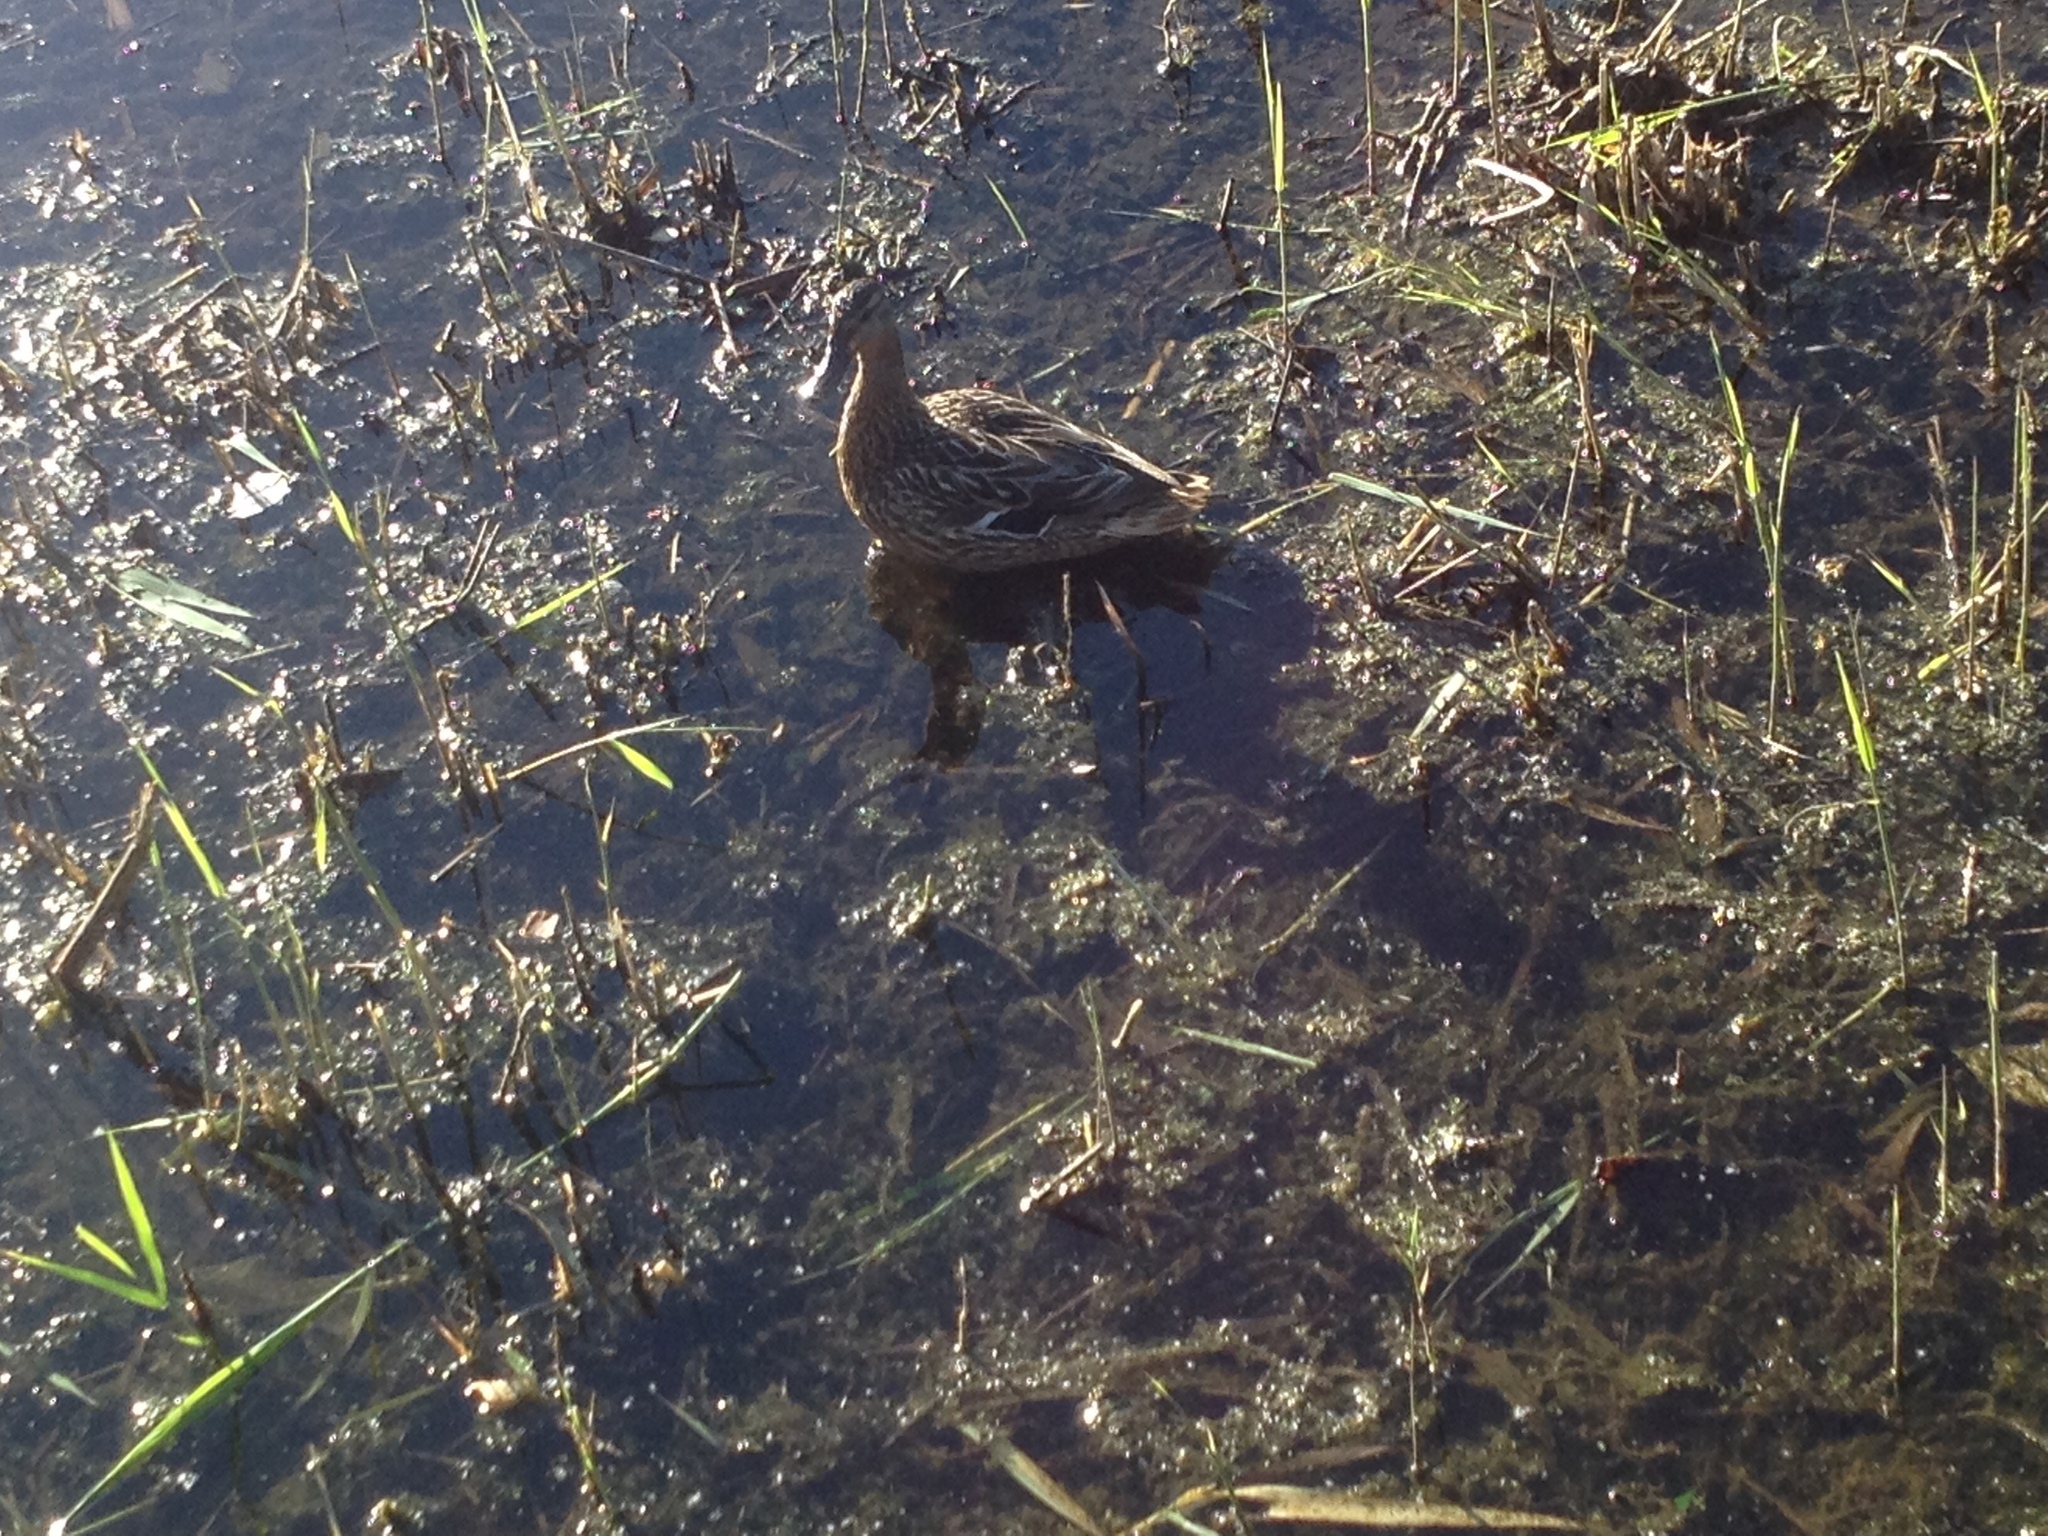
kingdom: Animalia
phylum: Chordata
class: Aves
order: Anseriformes
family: Anatidae
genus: Anas
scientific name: Anas platyrhynchos
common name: Mallard
